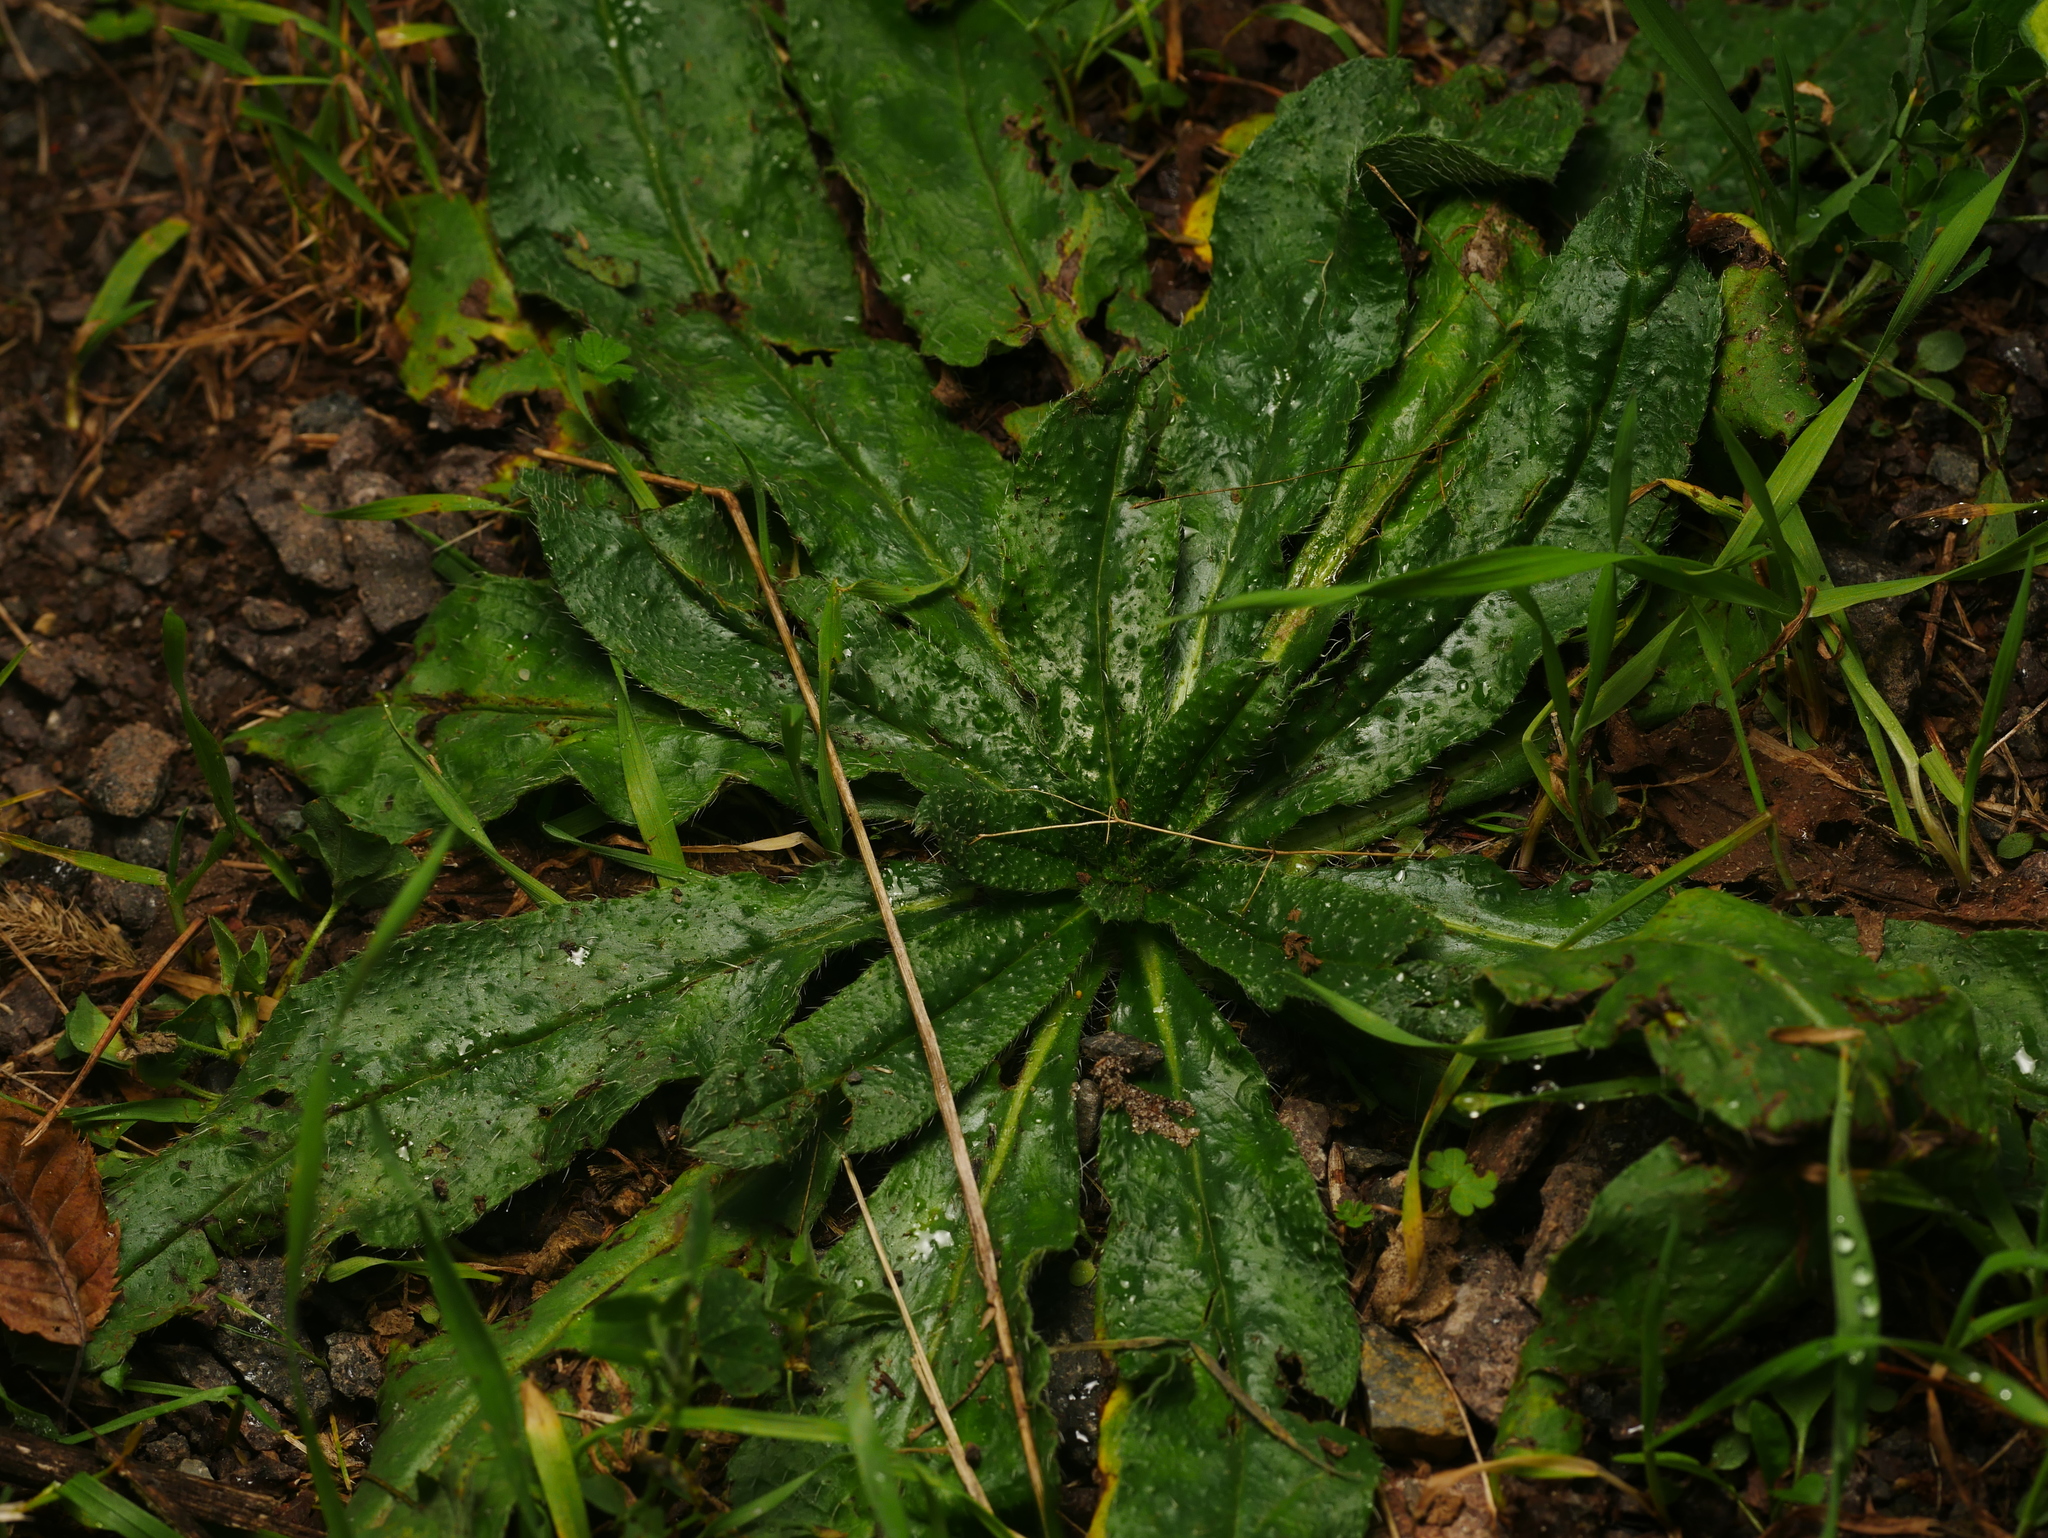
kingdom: Plantae
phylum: Tracheophyta
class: Magnoliopsida
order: Boraginales
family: Boraginaceae
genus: Echium
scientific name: Echium vulgare
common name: Common viper's bugloss
